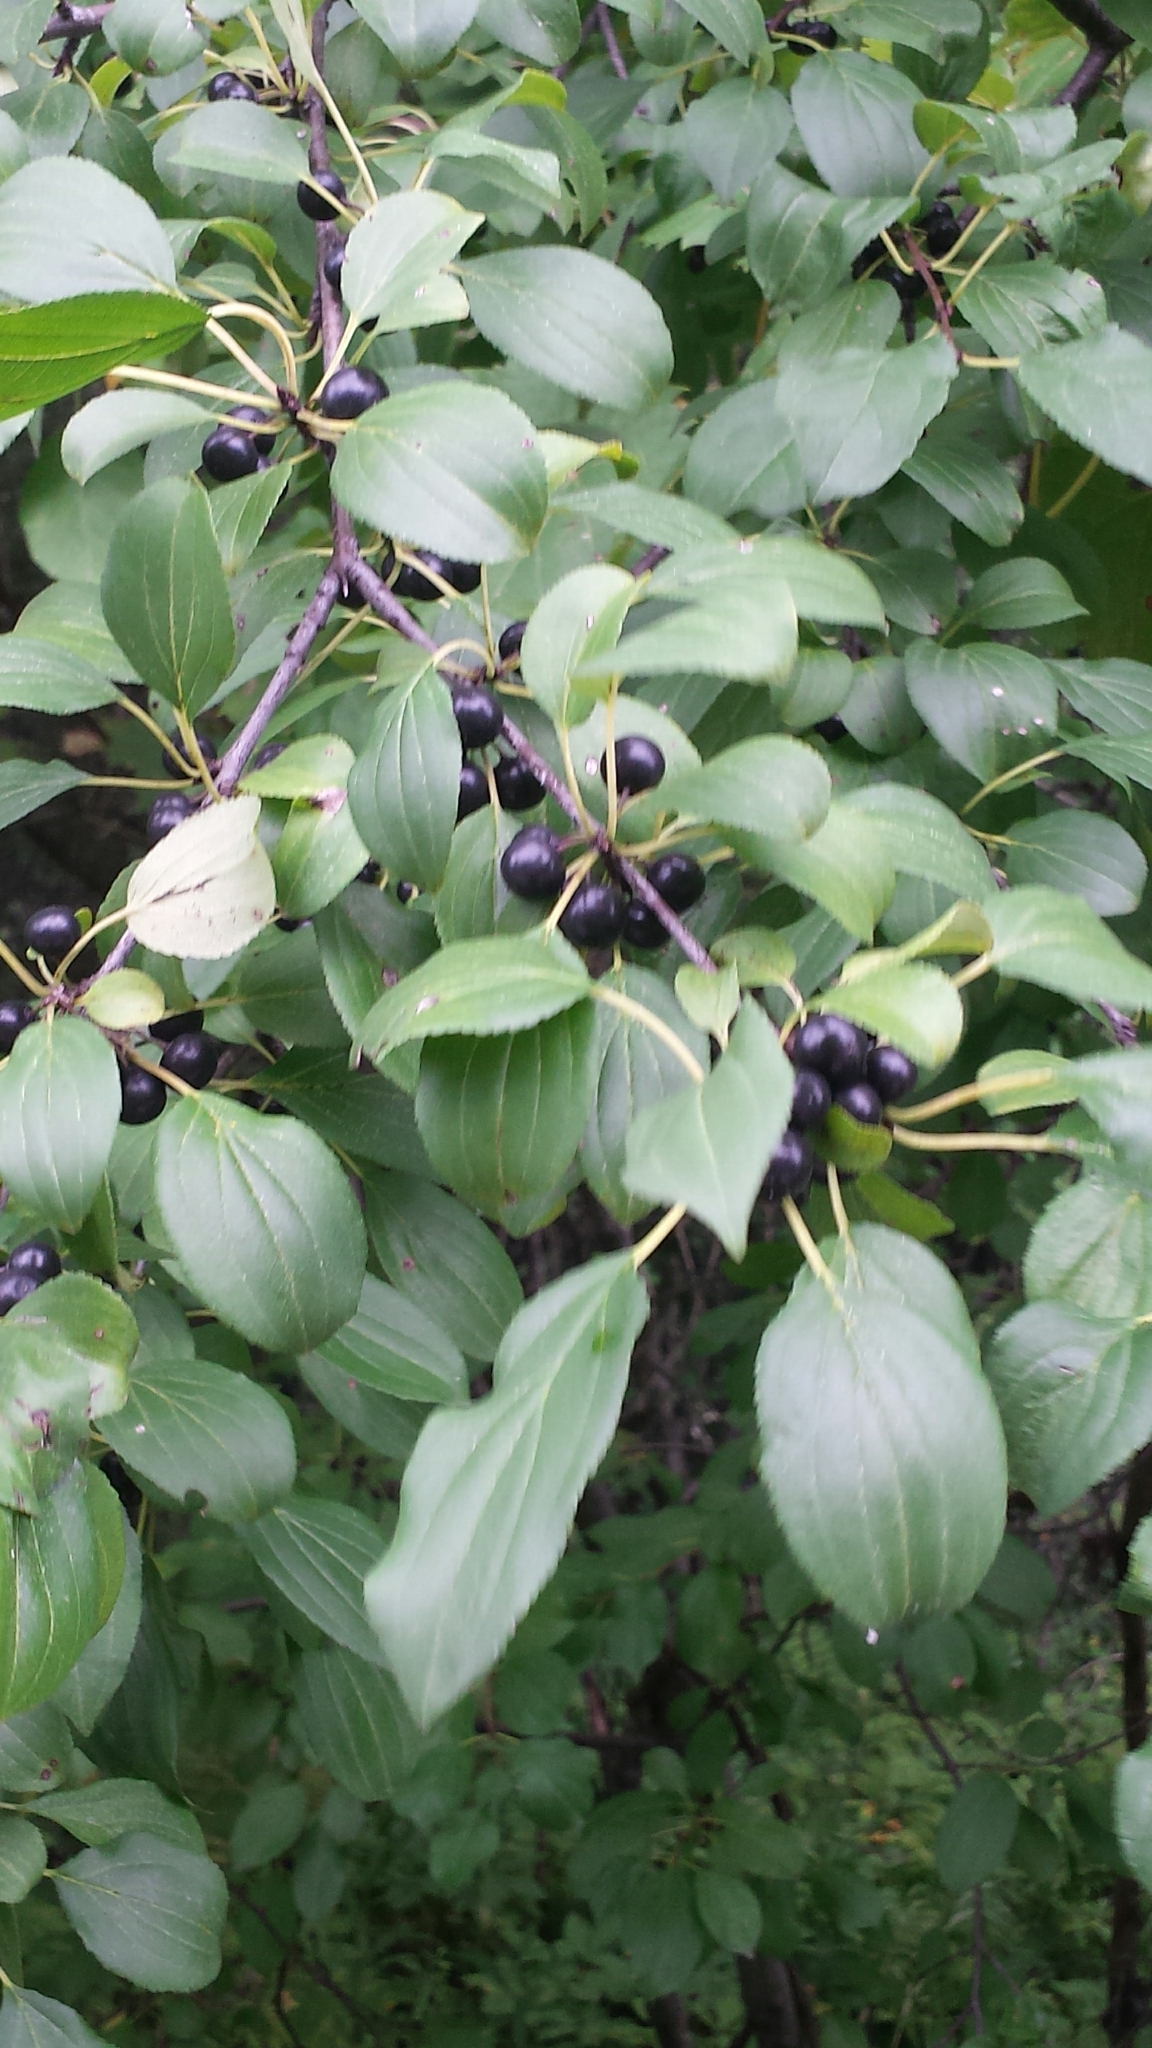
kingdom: Plantae
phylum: Tracheophyta
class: Magnoliopsida
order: Rosales
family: Rhamnaceae
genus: Rhamnus
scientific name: Rhamnus cathartica
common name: Common buckthorn
